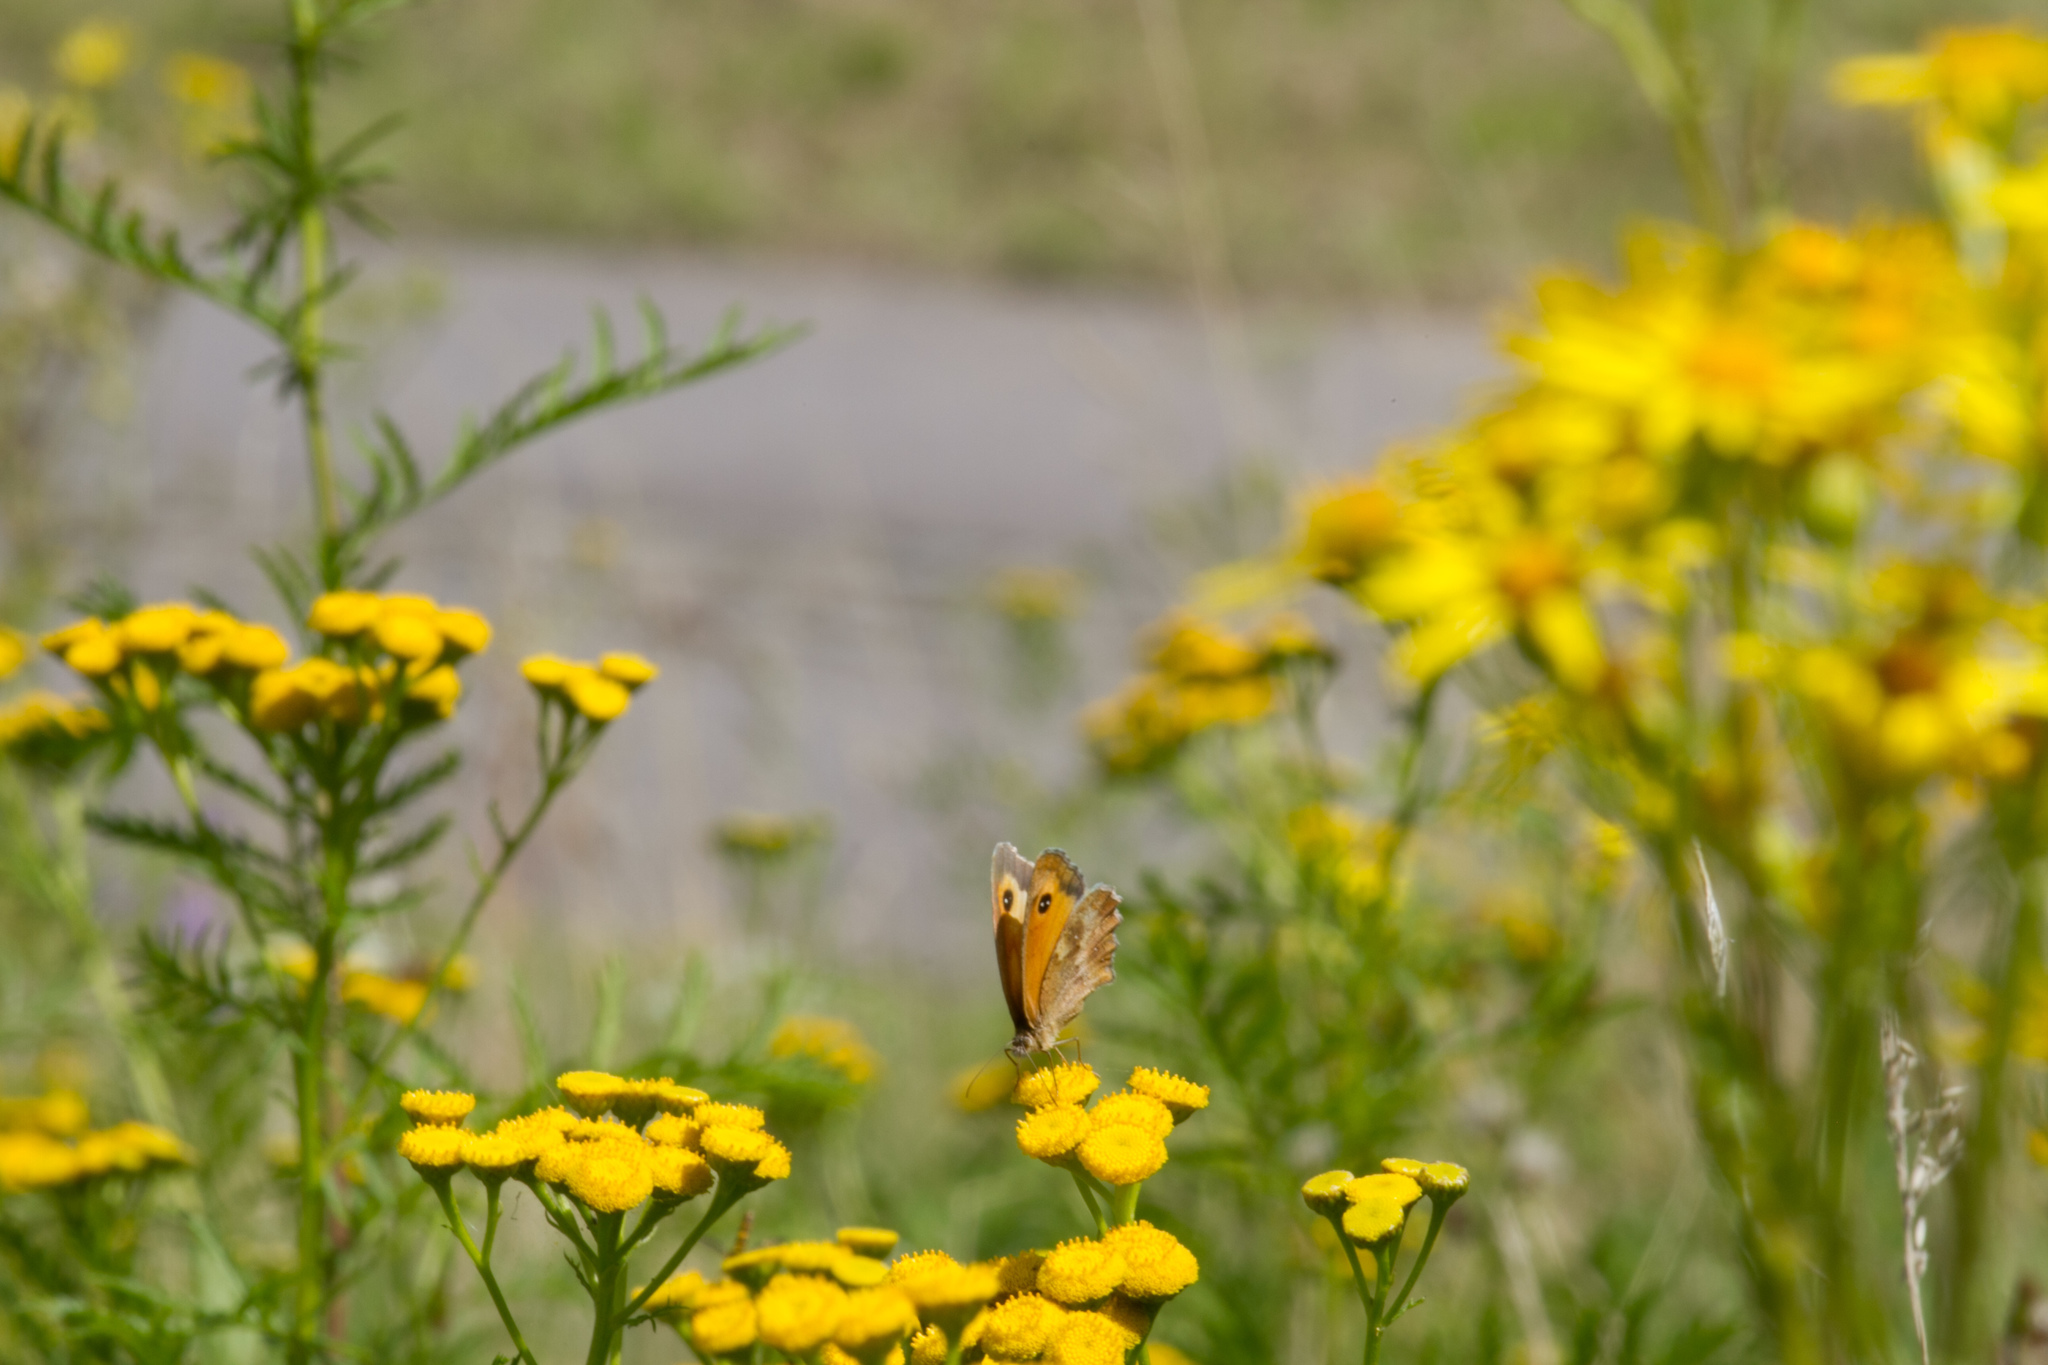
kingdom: Animalia
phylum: Arthropoda
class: Insecta
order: Lepidoptera
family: Nymphalidae
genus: Pyronia
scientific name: Pyronia tithonus
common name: Gatekeeper
